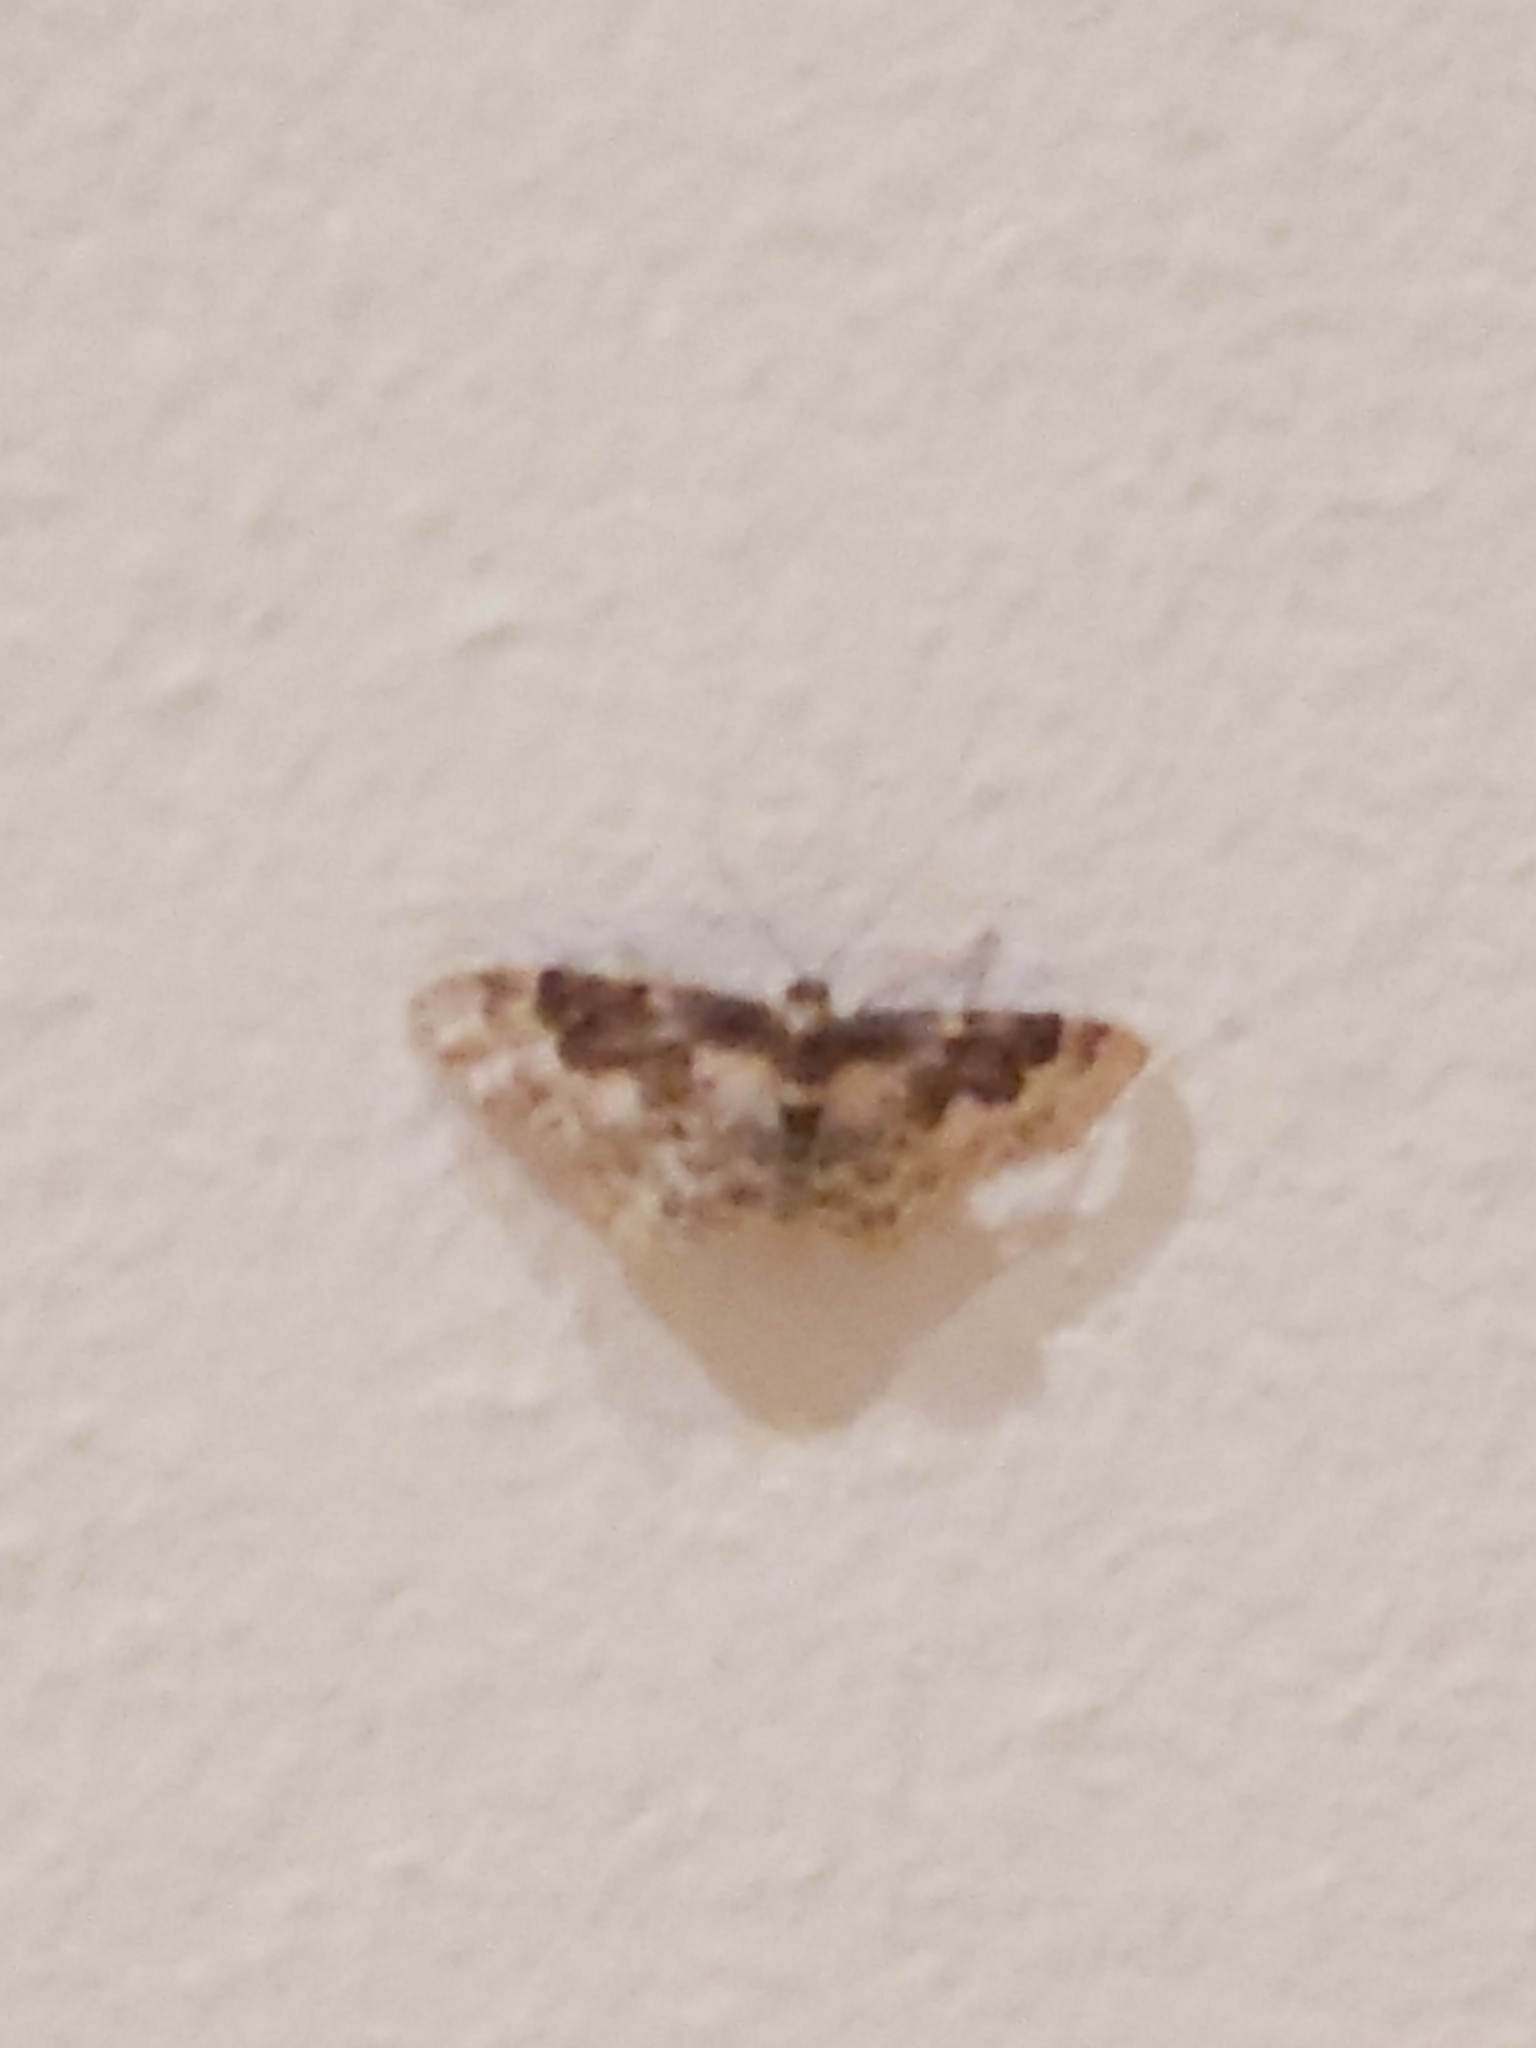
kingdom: Animalia
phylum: Arthropoda
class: Insecta
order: Lepidoptera
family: Geometridae
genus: Idaea
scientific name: Idaea rusticata
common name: Least carpet
